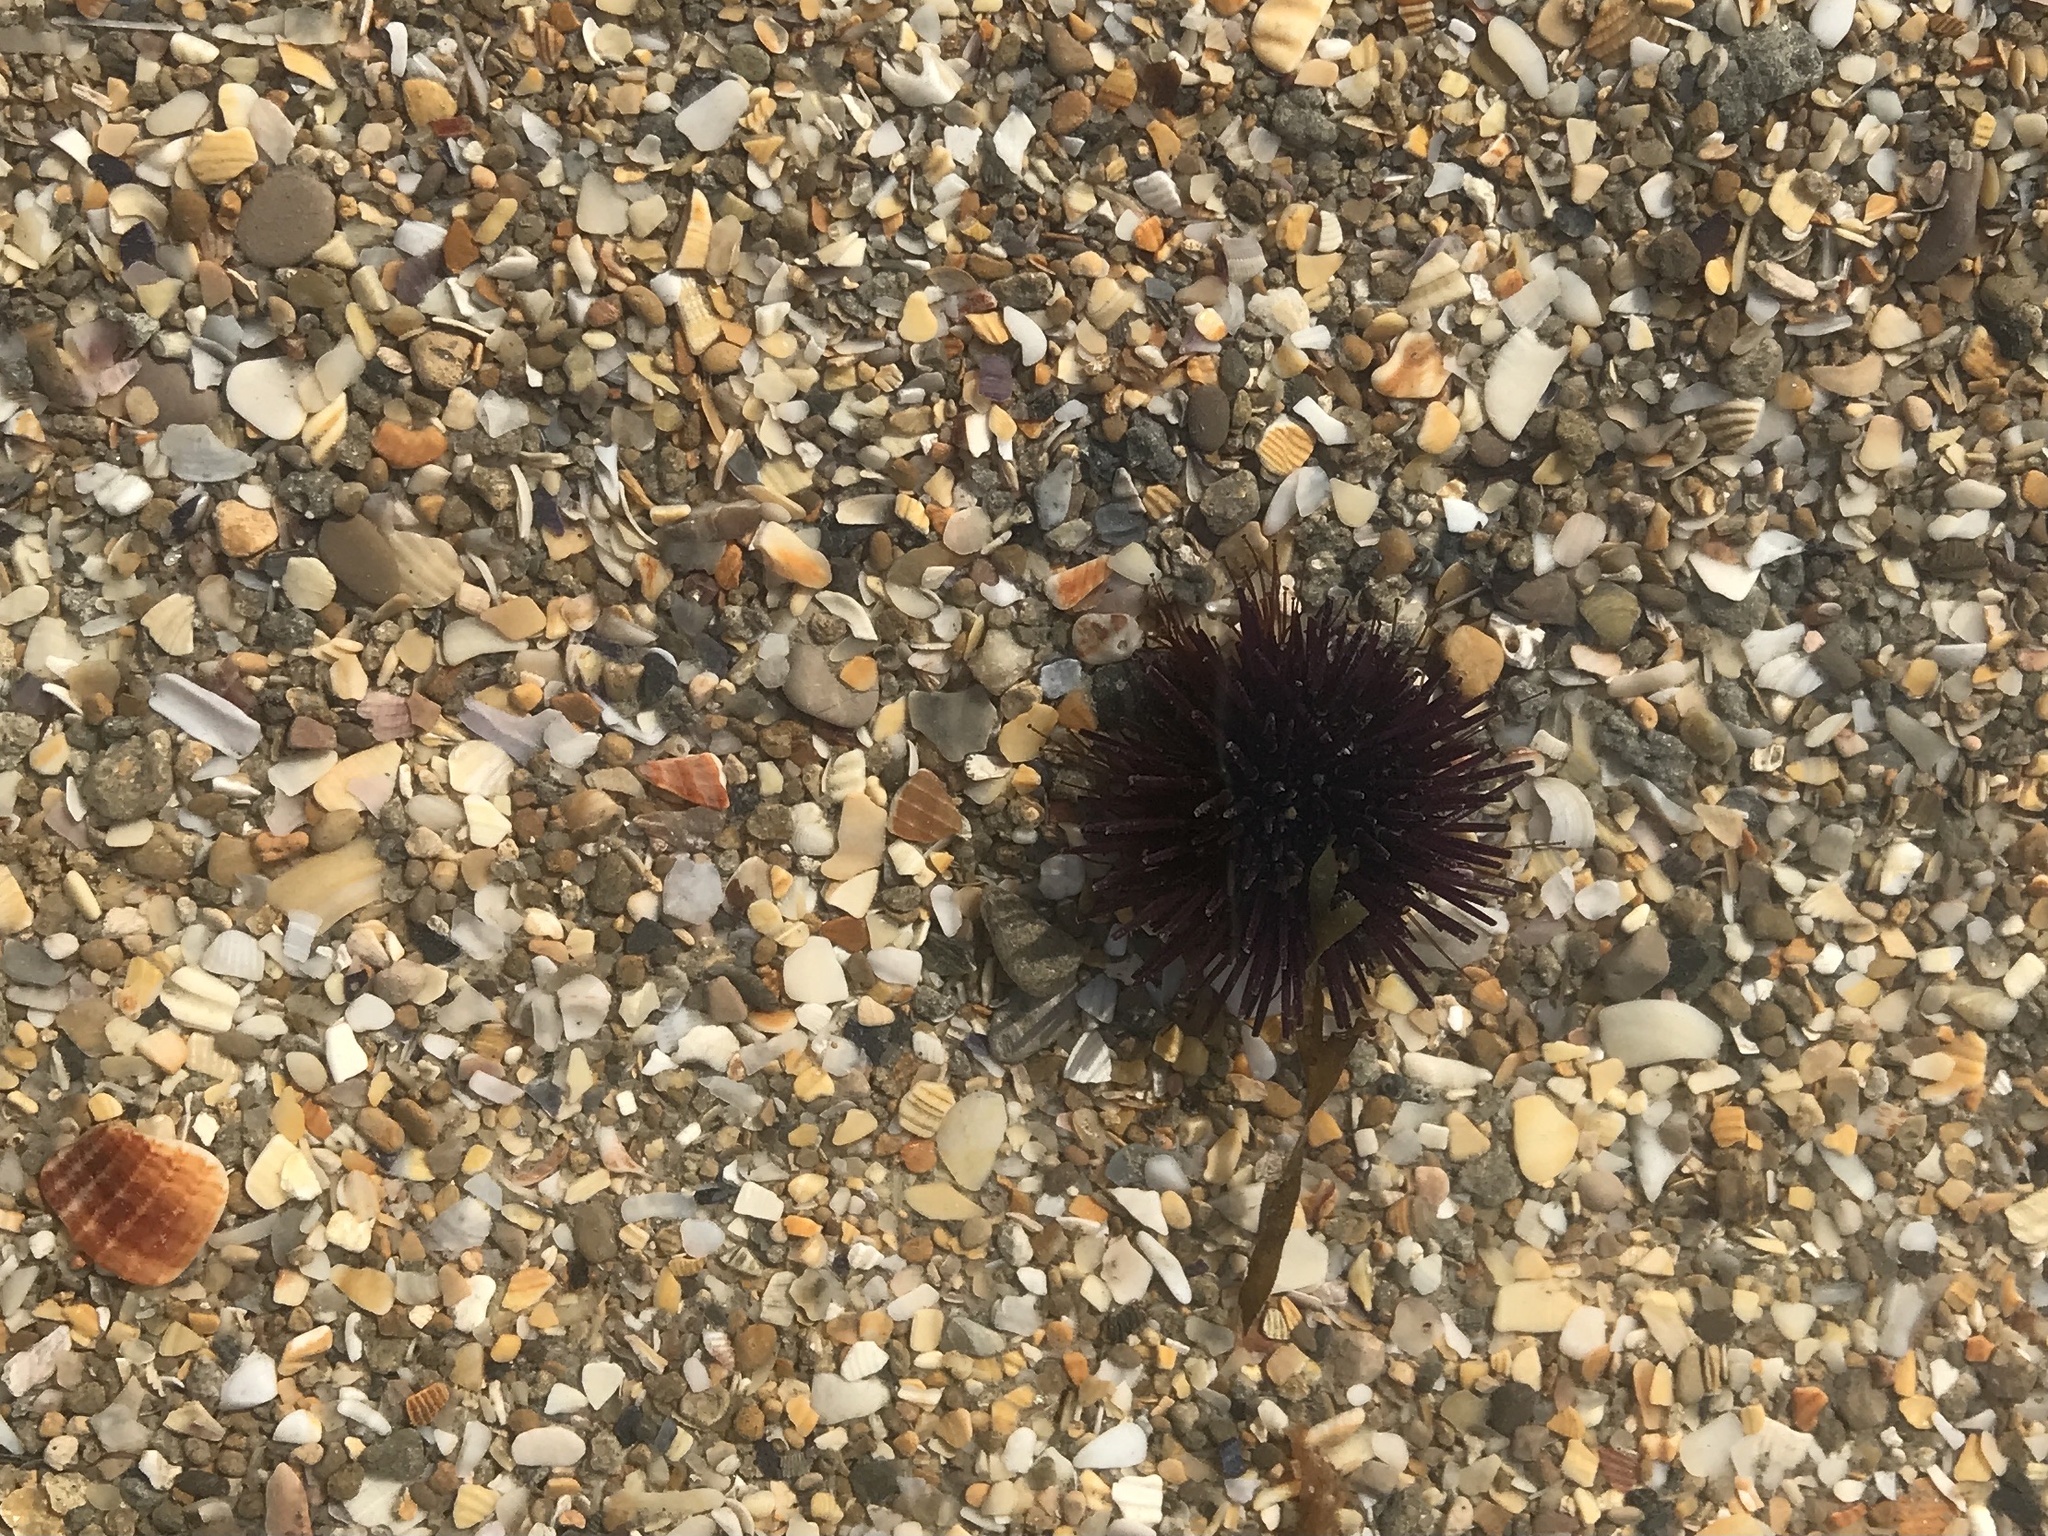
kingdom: Animalia
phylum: Echinodermata
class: Echinoidea
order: Camarodonta
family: Parechinidae
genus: Paracentrotus
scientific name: Paracentrotus lividus
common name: Purple sea urchin
